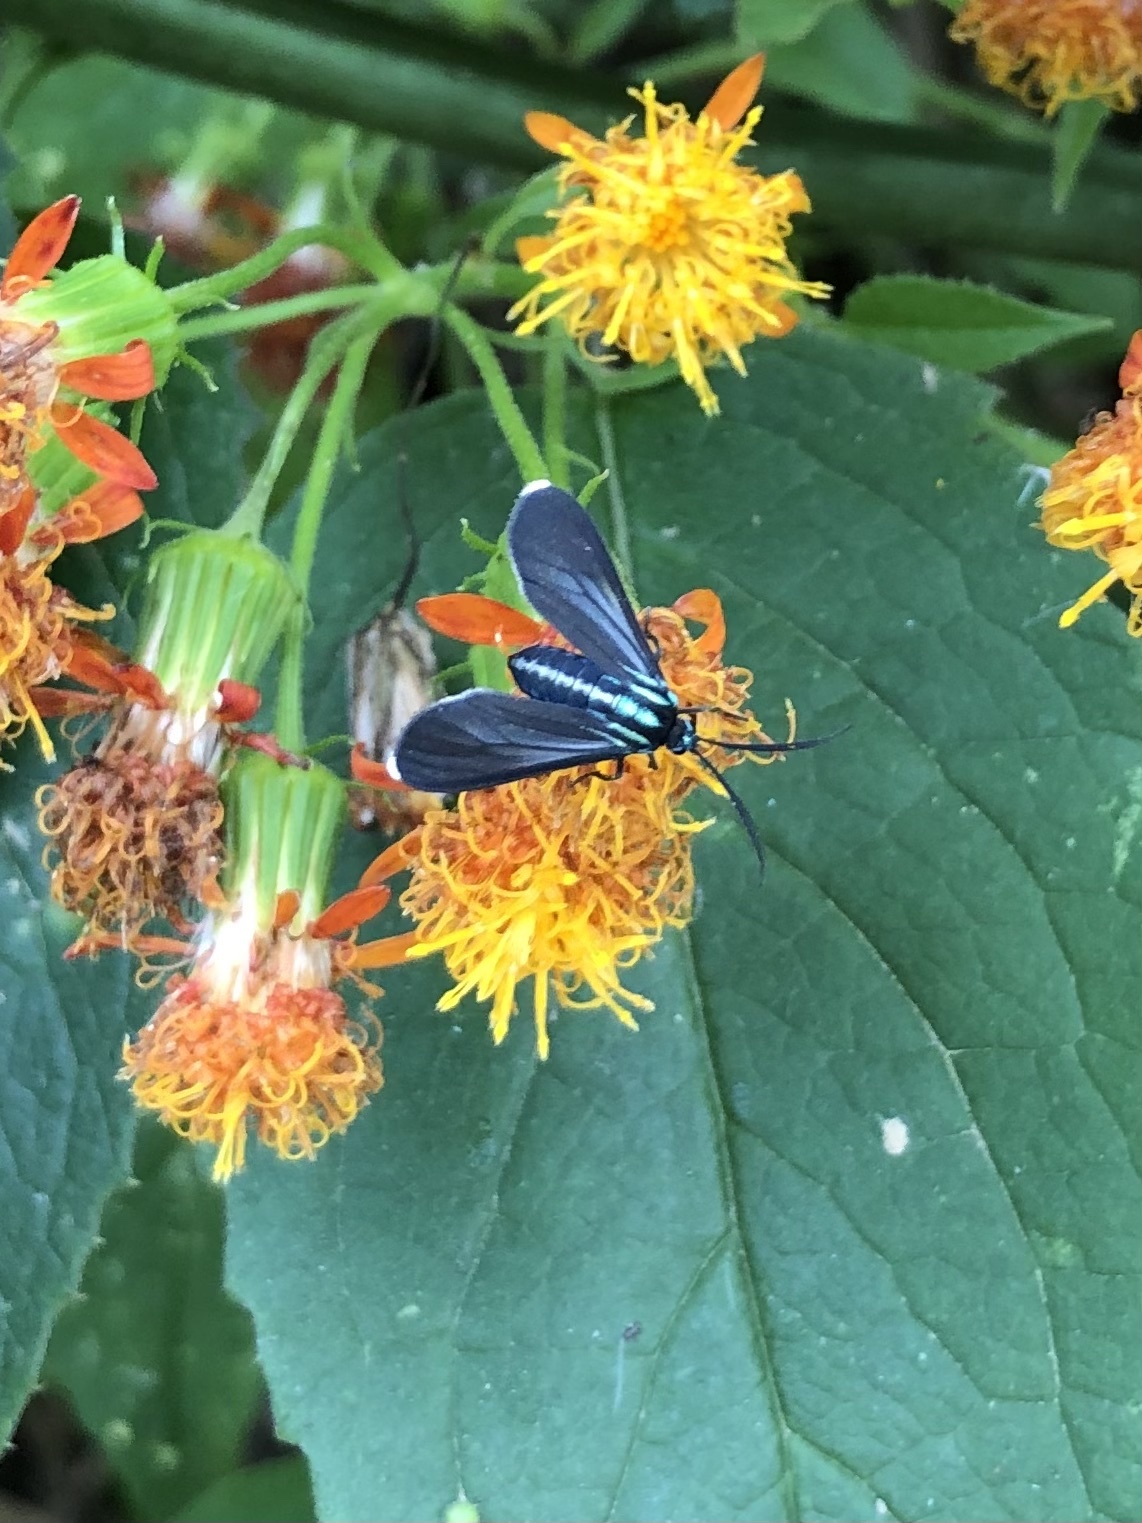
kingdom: Animalia
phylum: Arthropoda
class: Insecta
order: Lepidoptera
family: Erebidae
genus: Uranophora
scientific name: Uranophora leucotela
